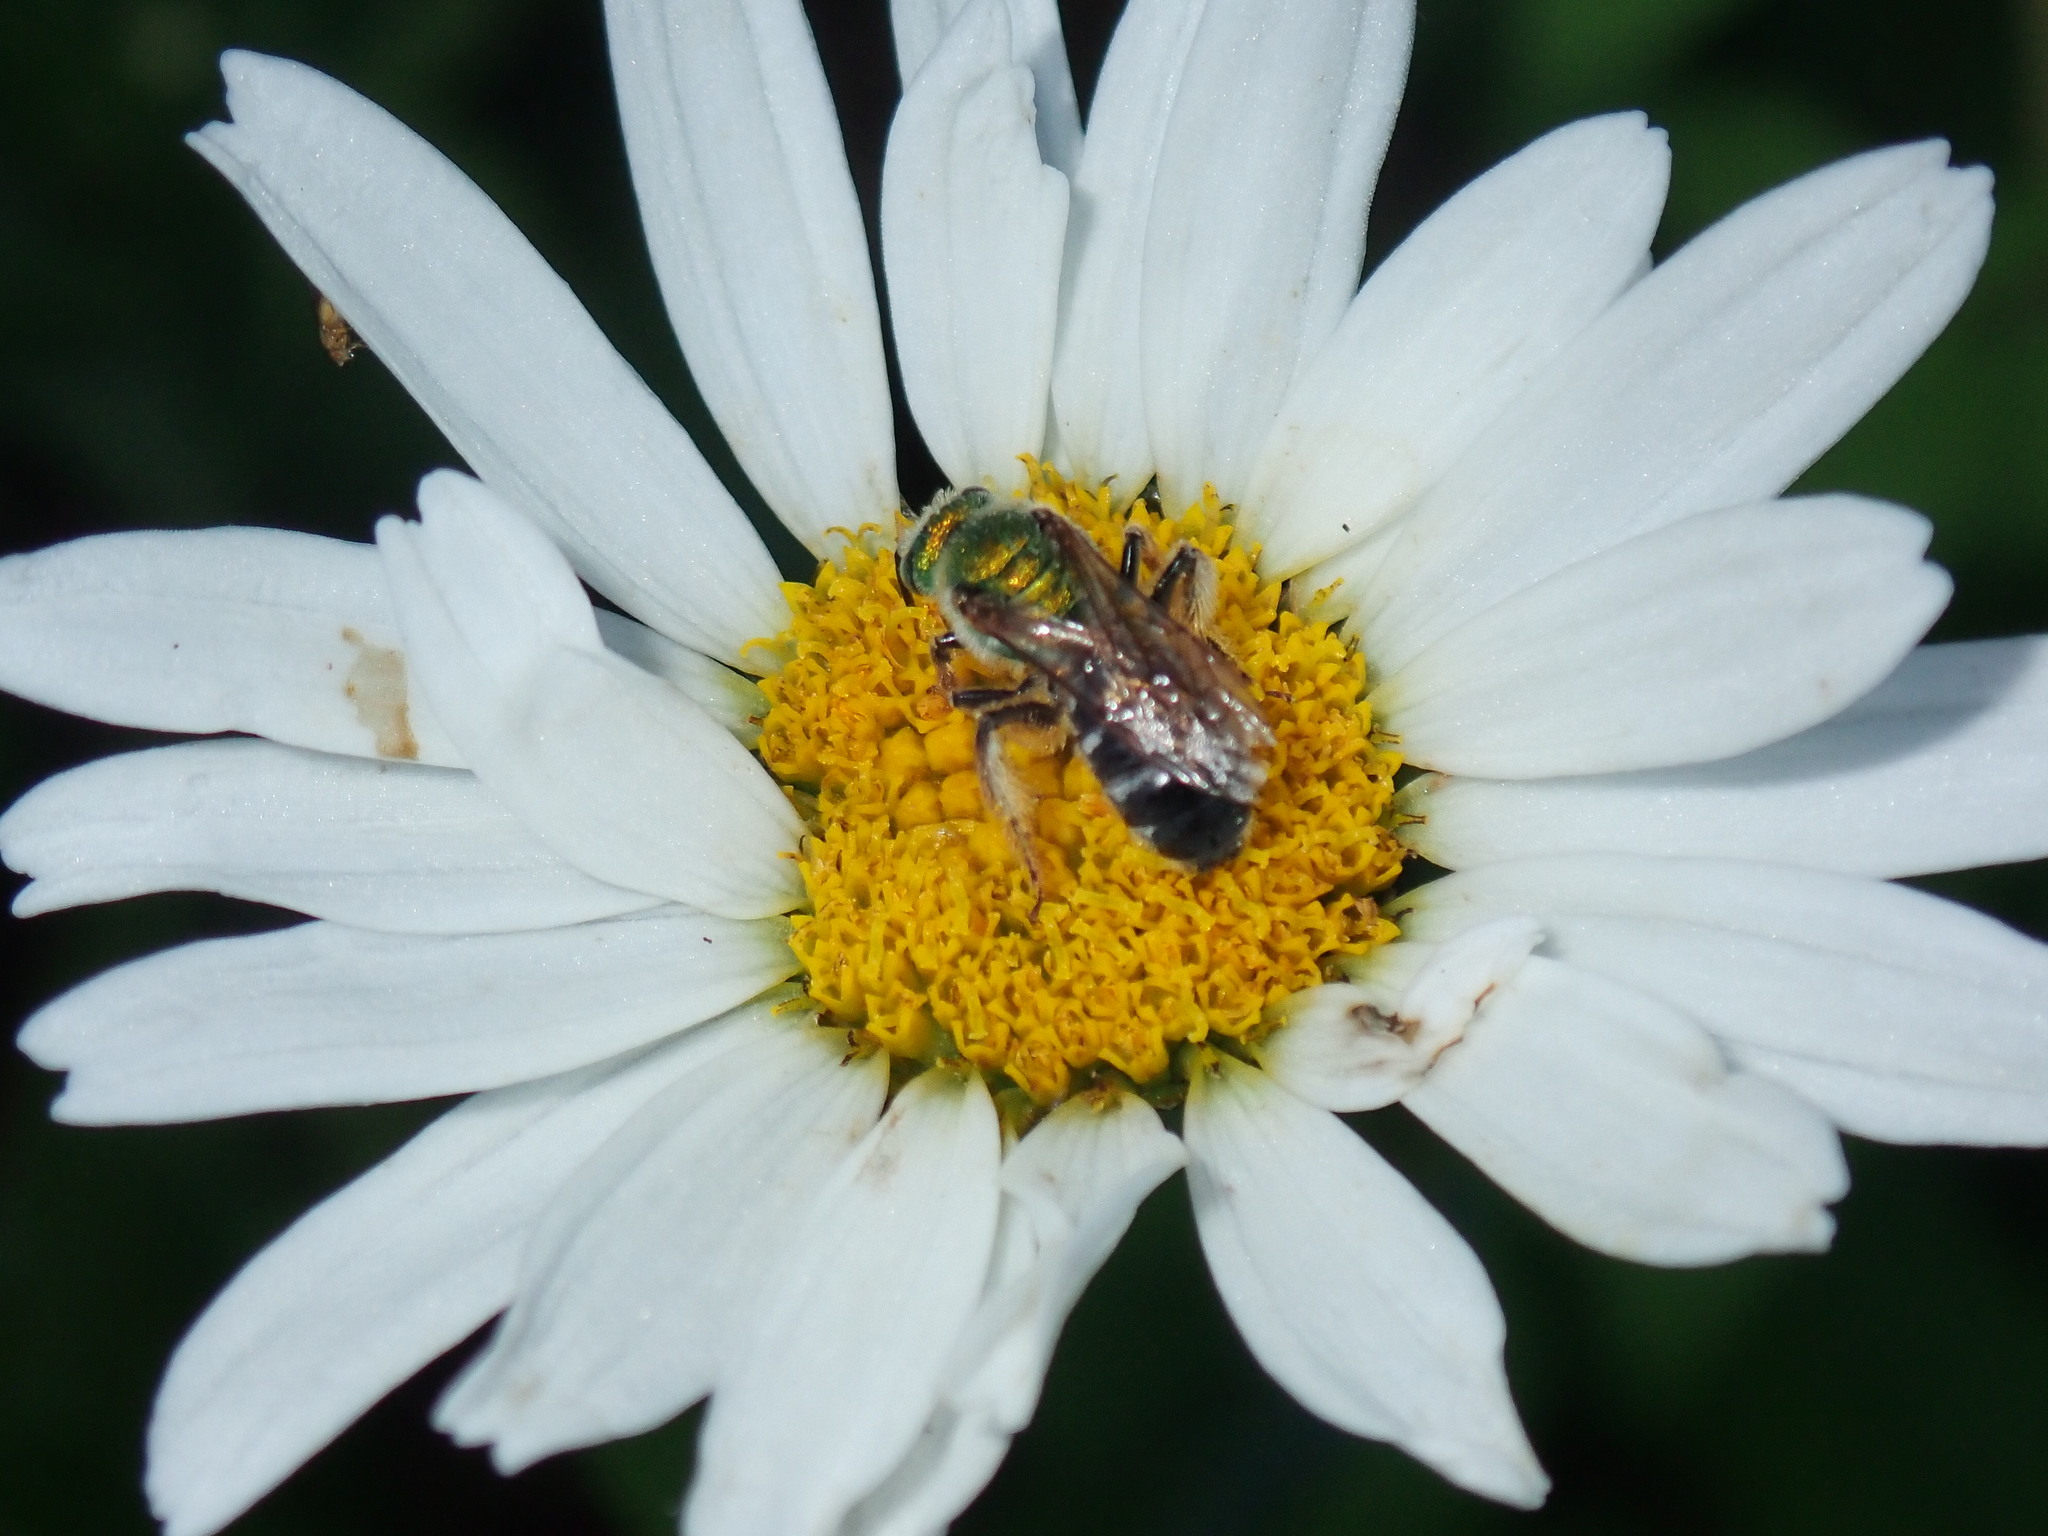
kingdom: Animalia
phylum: Arthropoda
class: Insecta
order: Hymenoptera
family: Halictidae
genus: Agapostemon
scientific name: Agapostemon virescens
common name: Bicolored striped sweat bee
